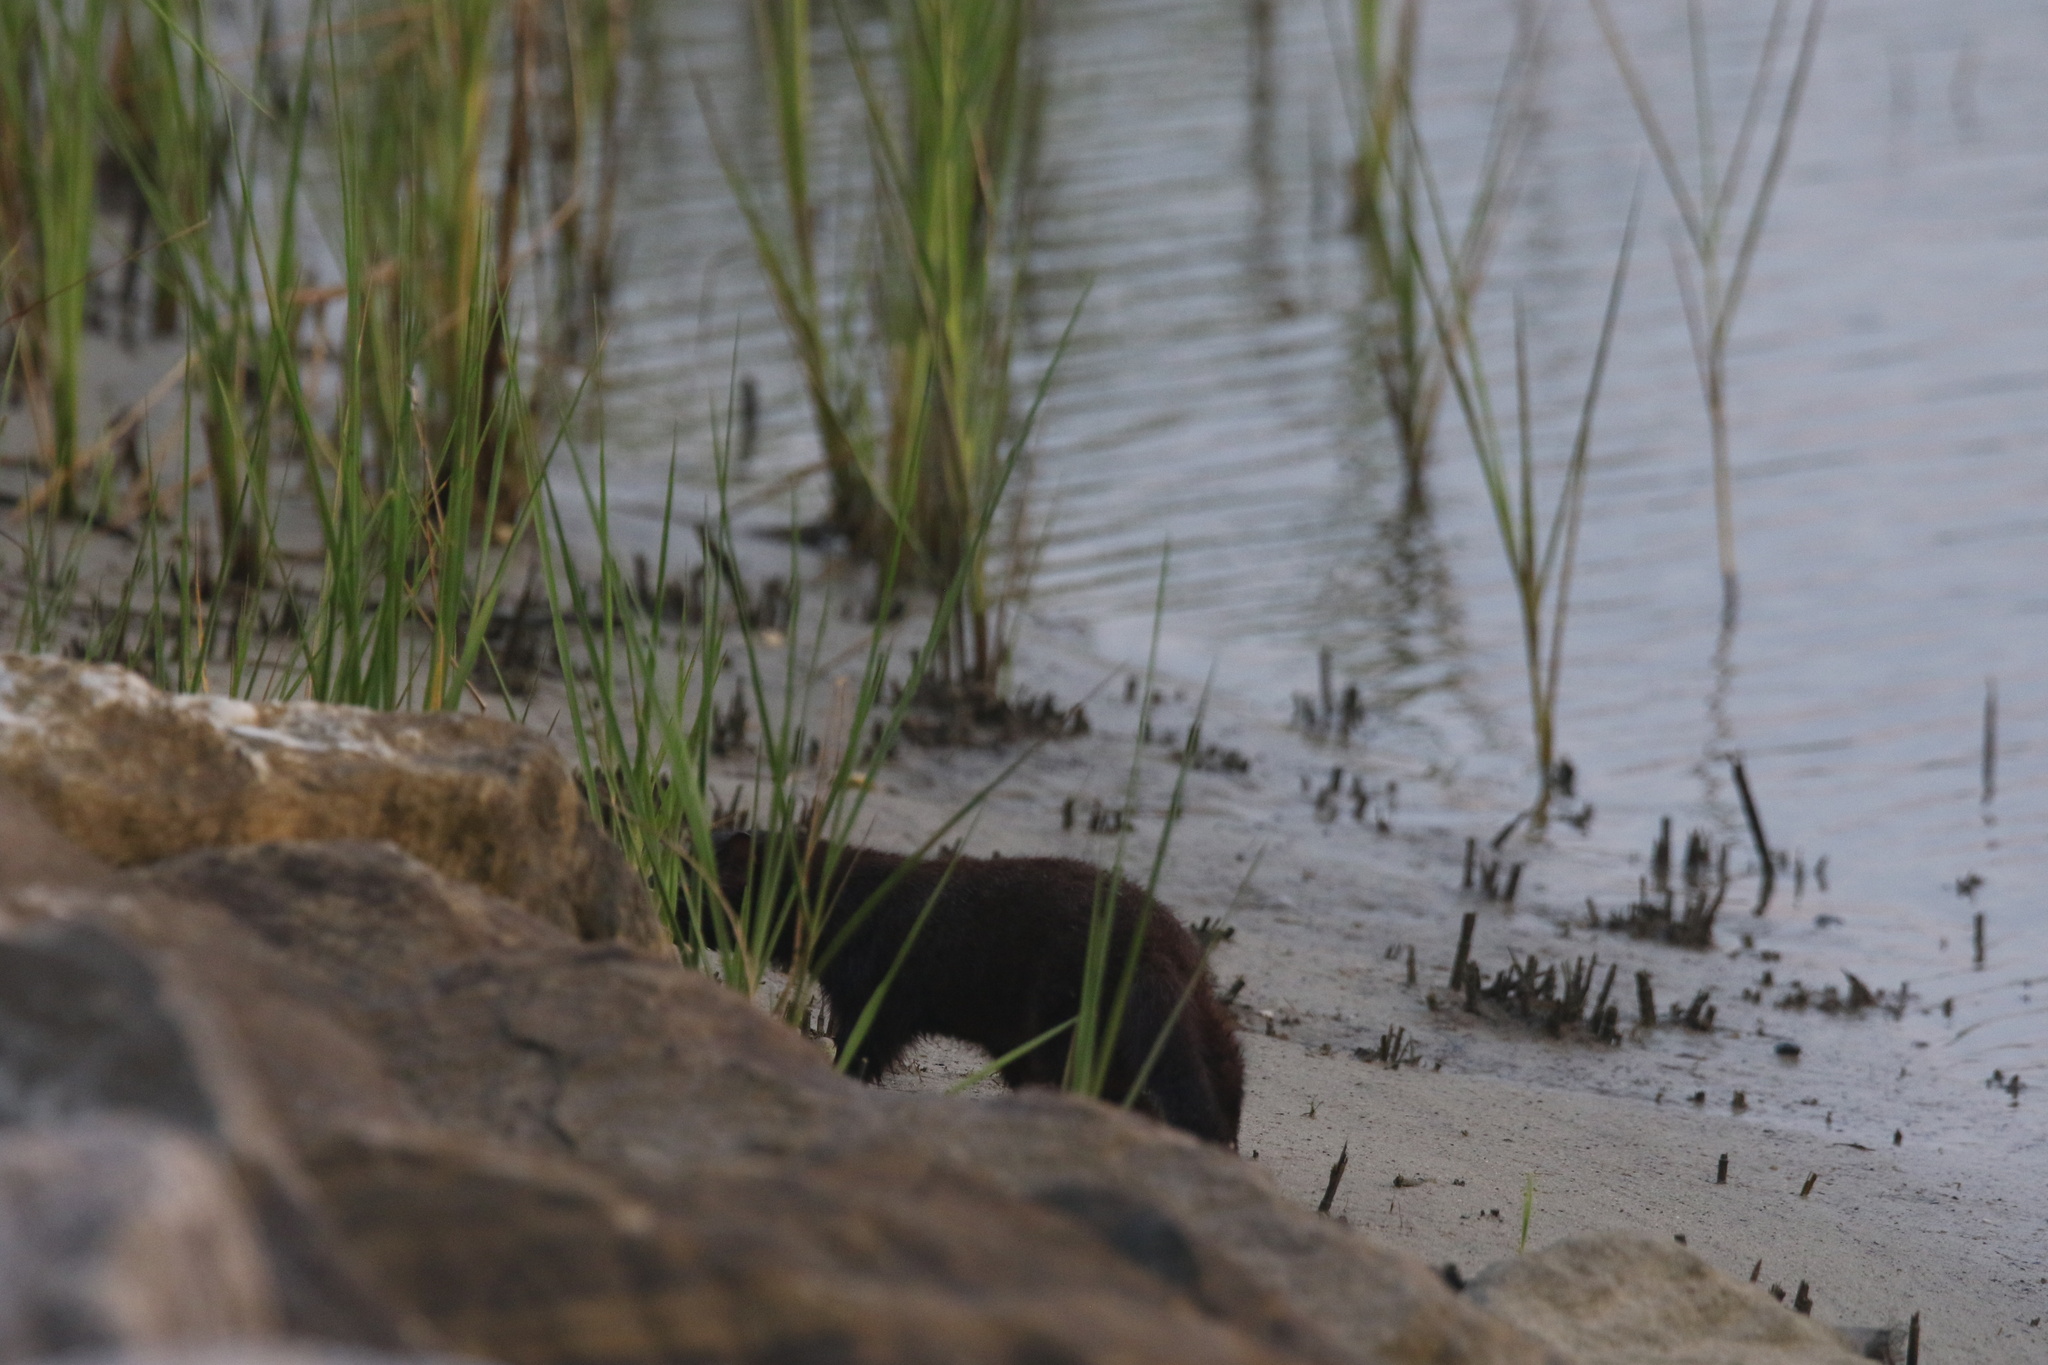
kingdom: Animalia
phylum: Chordata
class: Mammalia
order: Carnivora
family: Mustelidae
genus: Mustela
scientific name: Mustela
